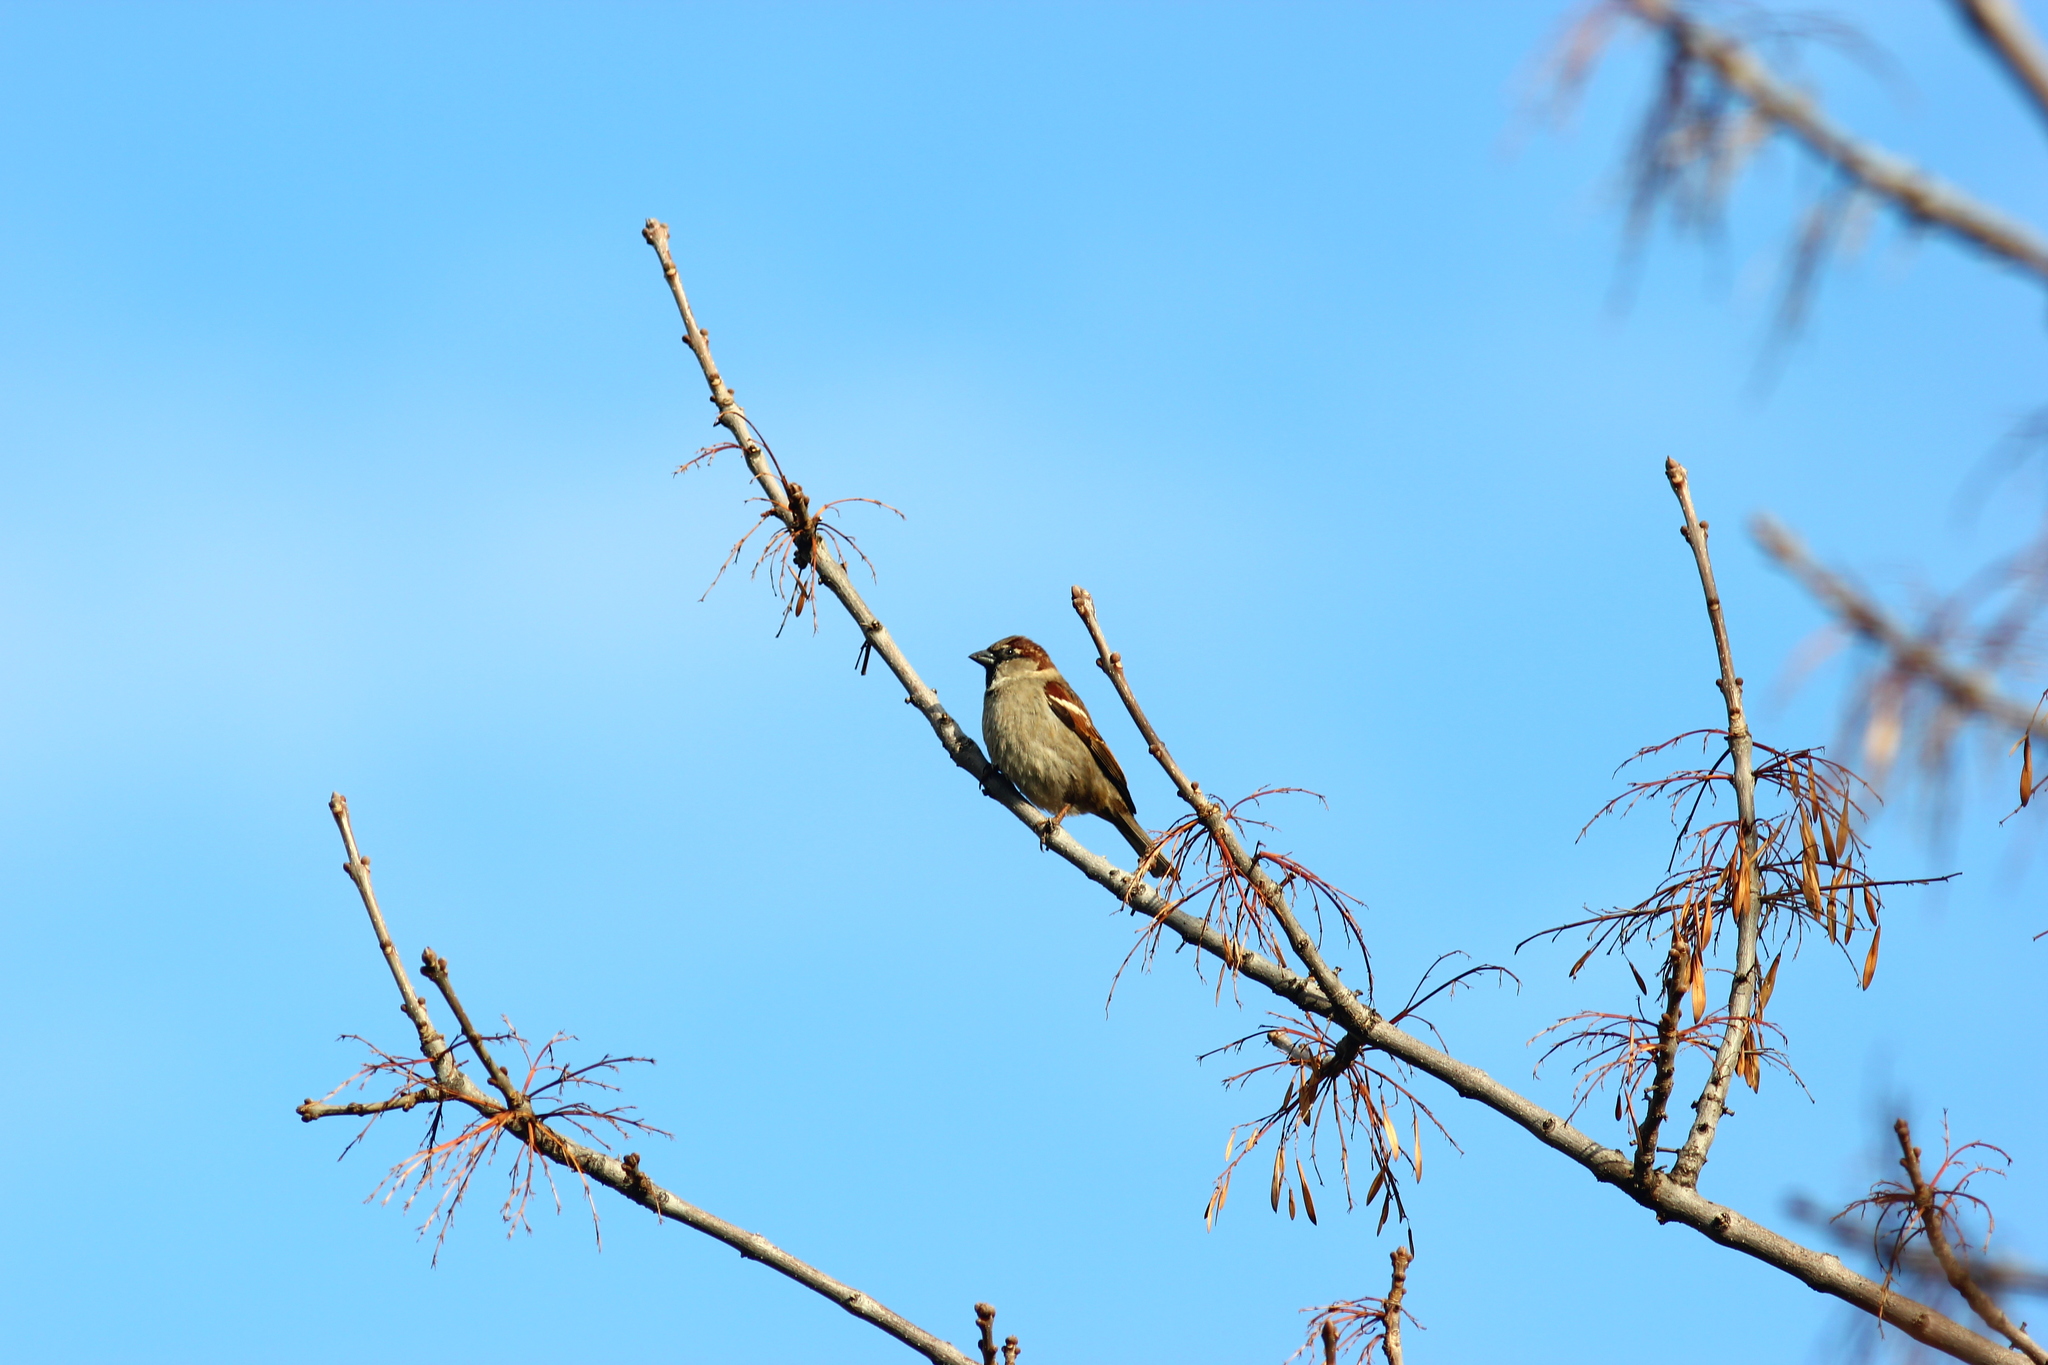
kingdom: Animalia
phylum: Chordata
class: Aves
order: Passeriformes
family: Passeridae
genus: Passer
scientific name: Passer domesticus
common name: House sparrow
